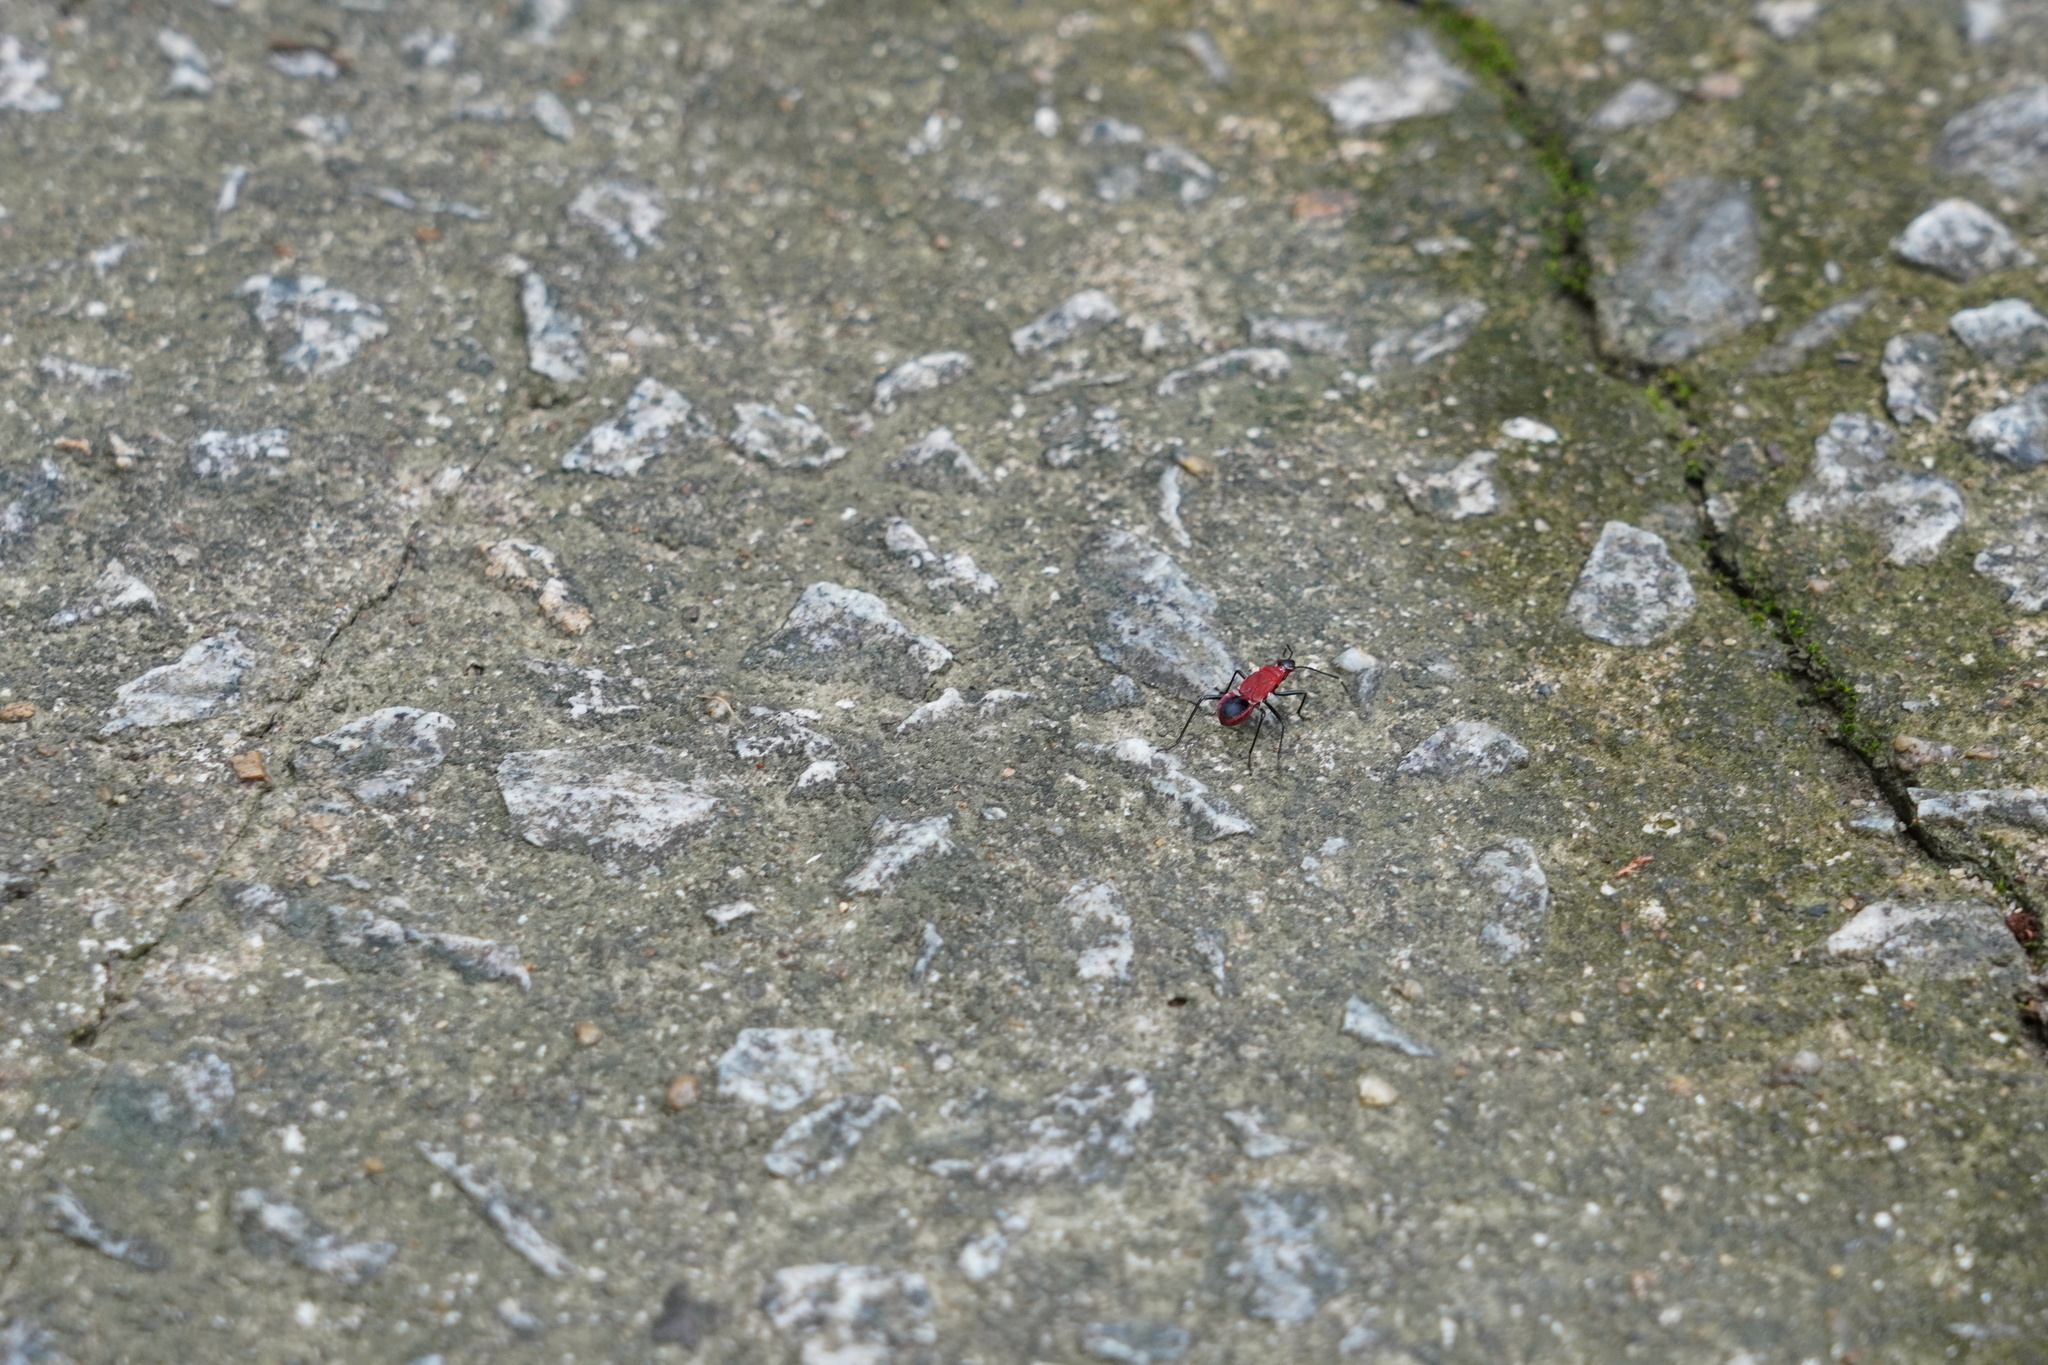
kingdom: Animalia
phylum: Arthropoda
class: Insecta
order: Hemiptera
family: Pyrrhocoridae
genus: Dindymus
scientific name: Dindymus
